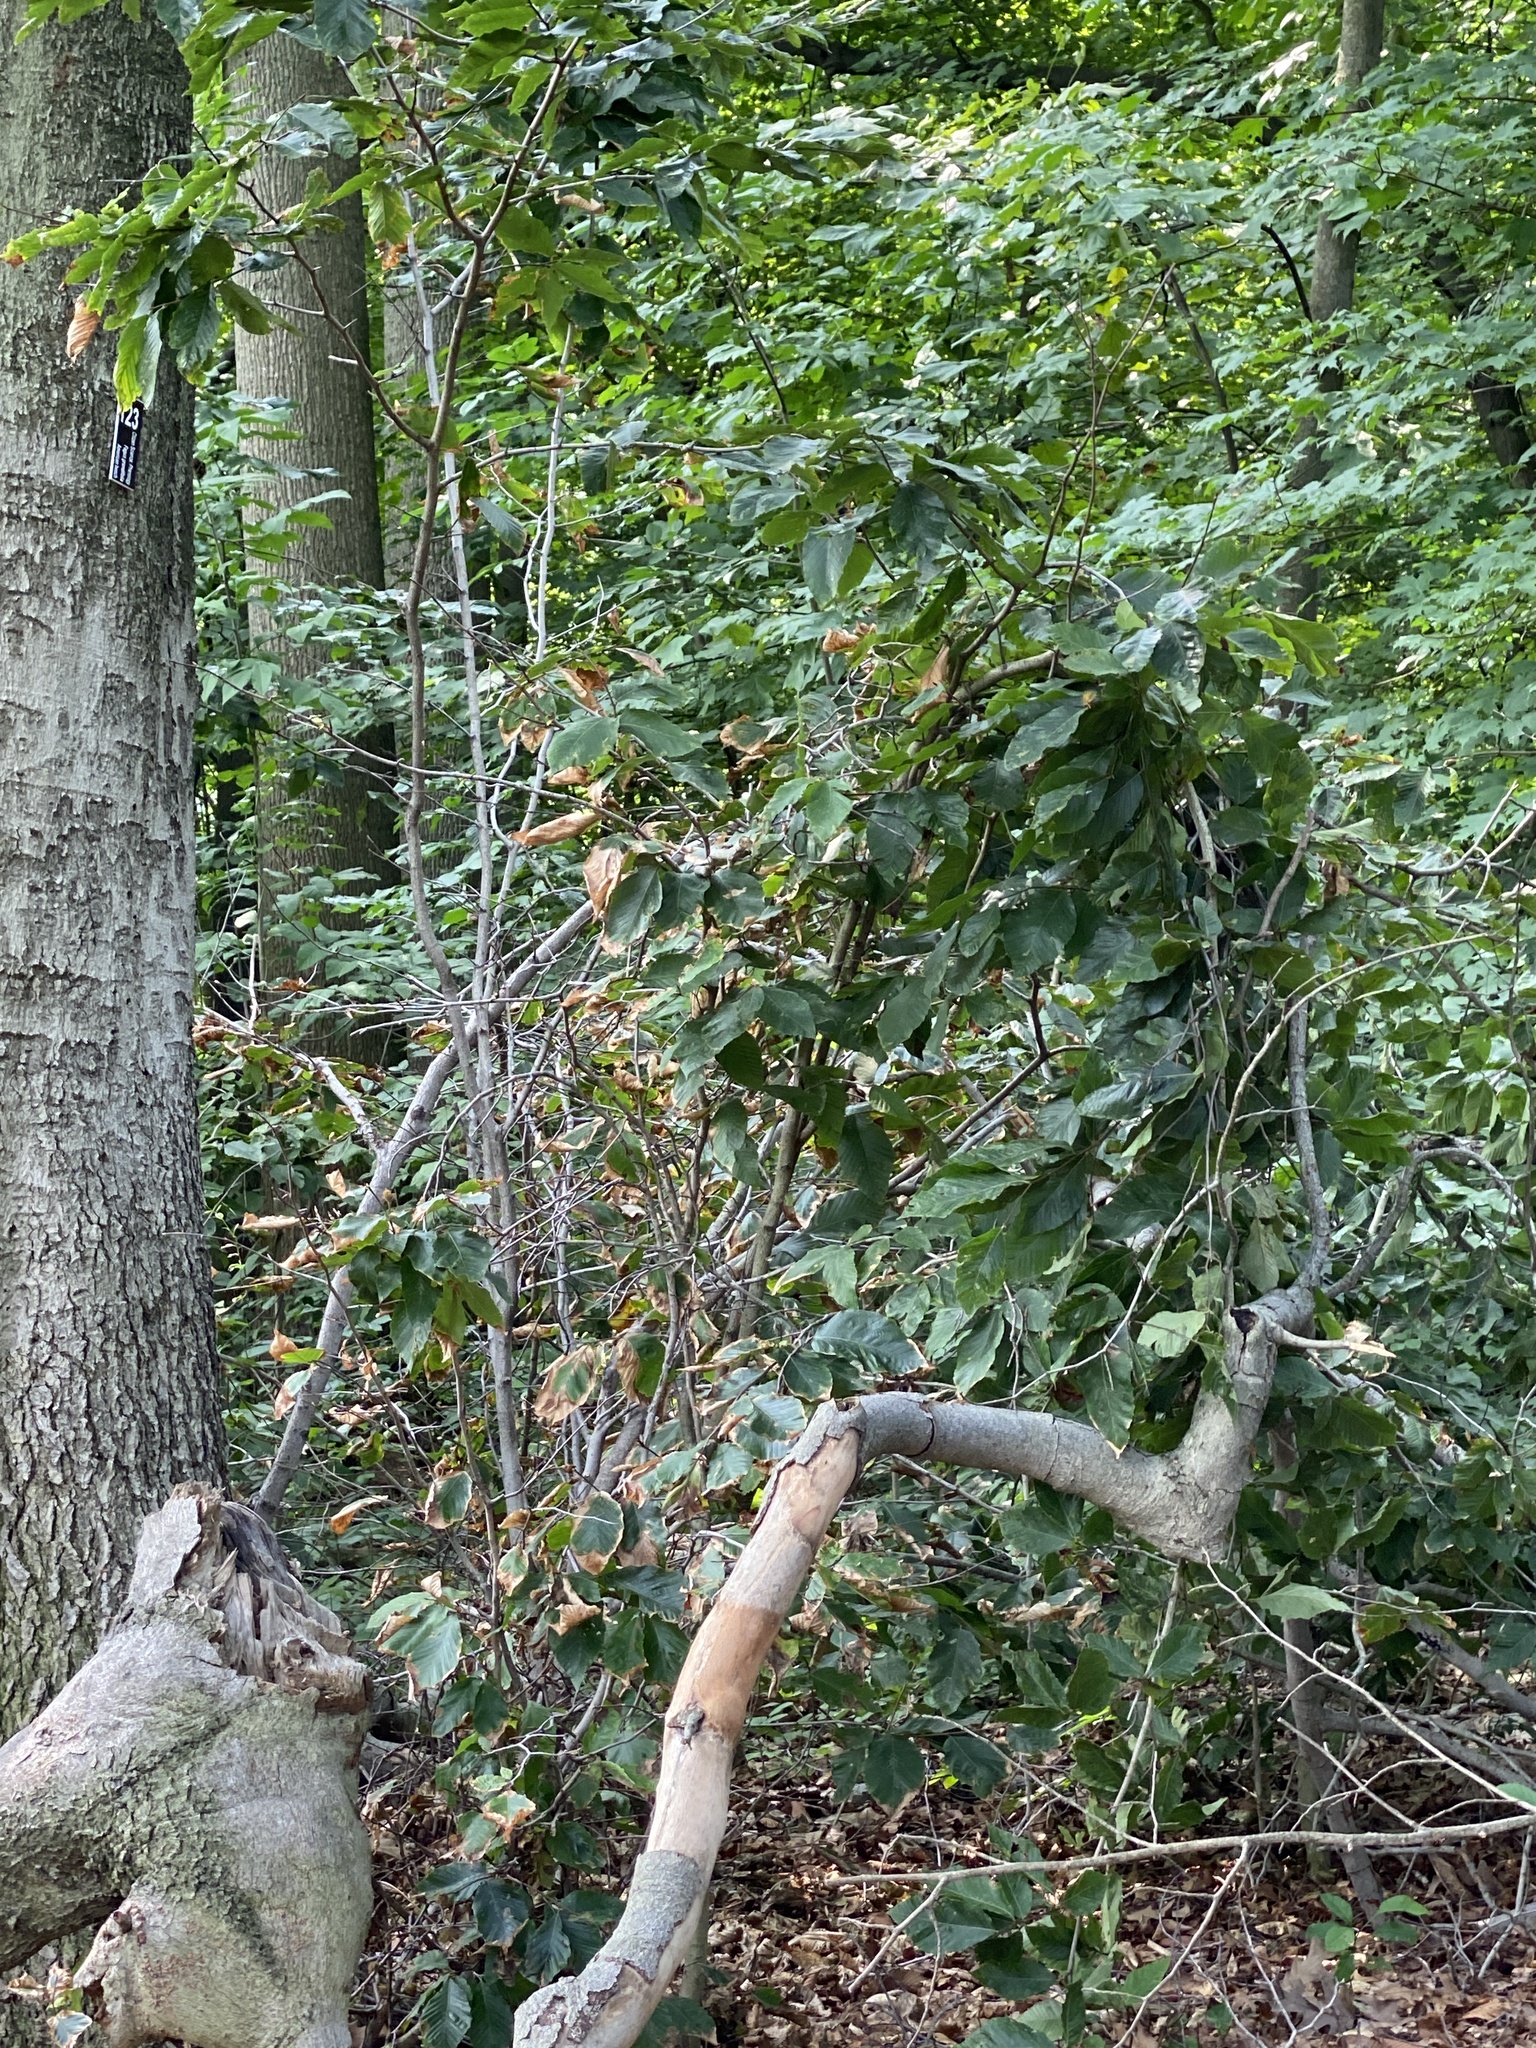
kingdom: Animalia
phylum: Nematoda
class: Chromadorea
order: Rhabditida
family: Anguinidae
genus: Litylenchus
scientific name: Litylenchus crenatae
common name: Beech leaf disease
